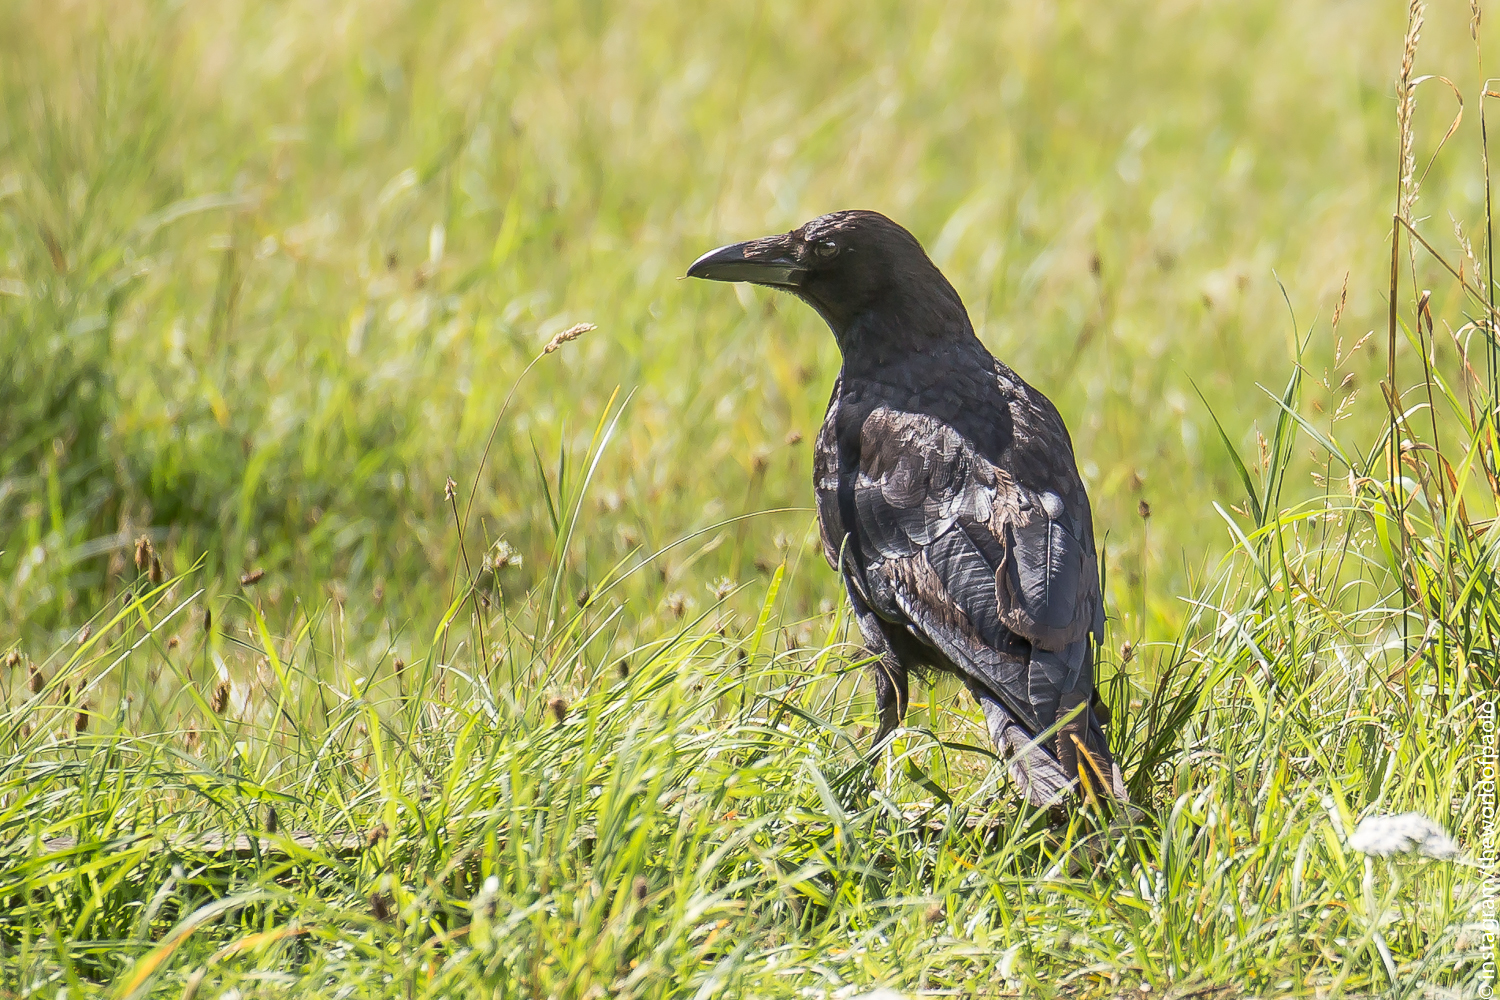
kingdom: Animalia
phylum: Chordata
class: Aves
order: Passeriformes
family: Corvidae
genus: Corvus
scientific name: Corvus corone
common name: Carrion crow
